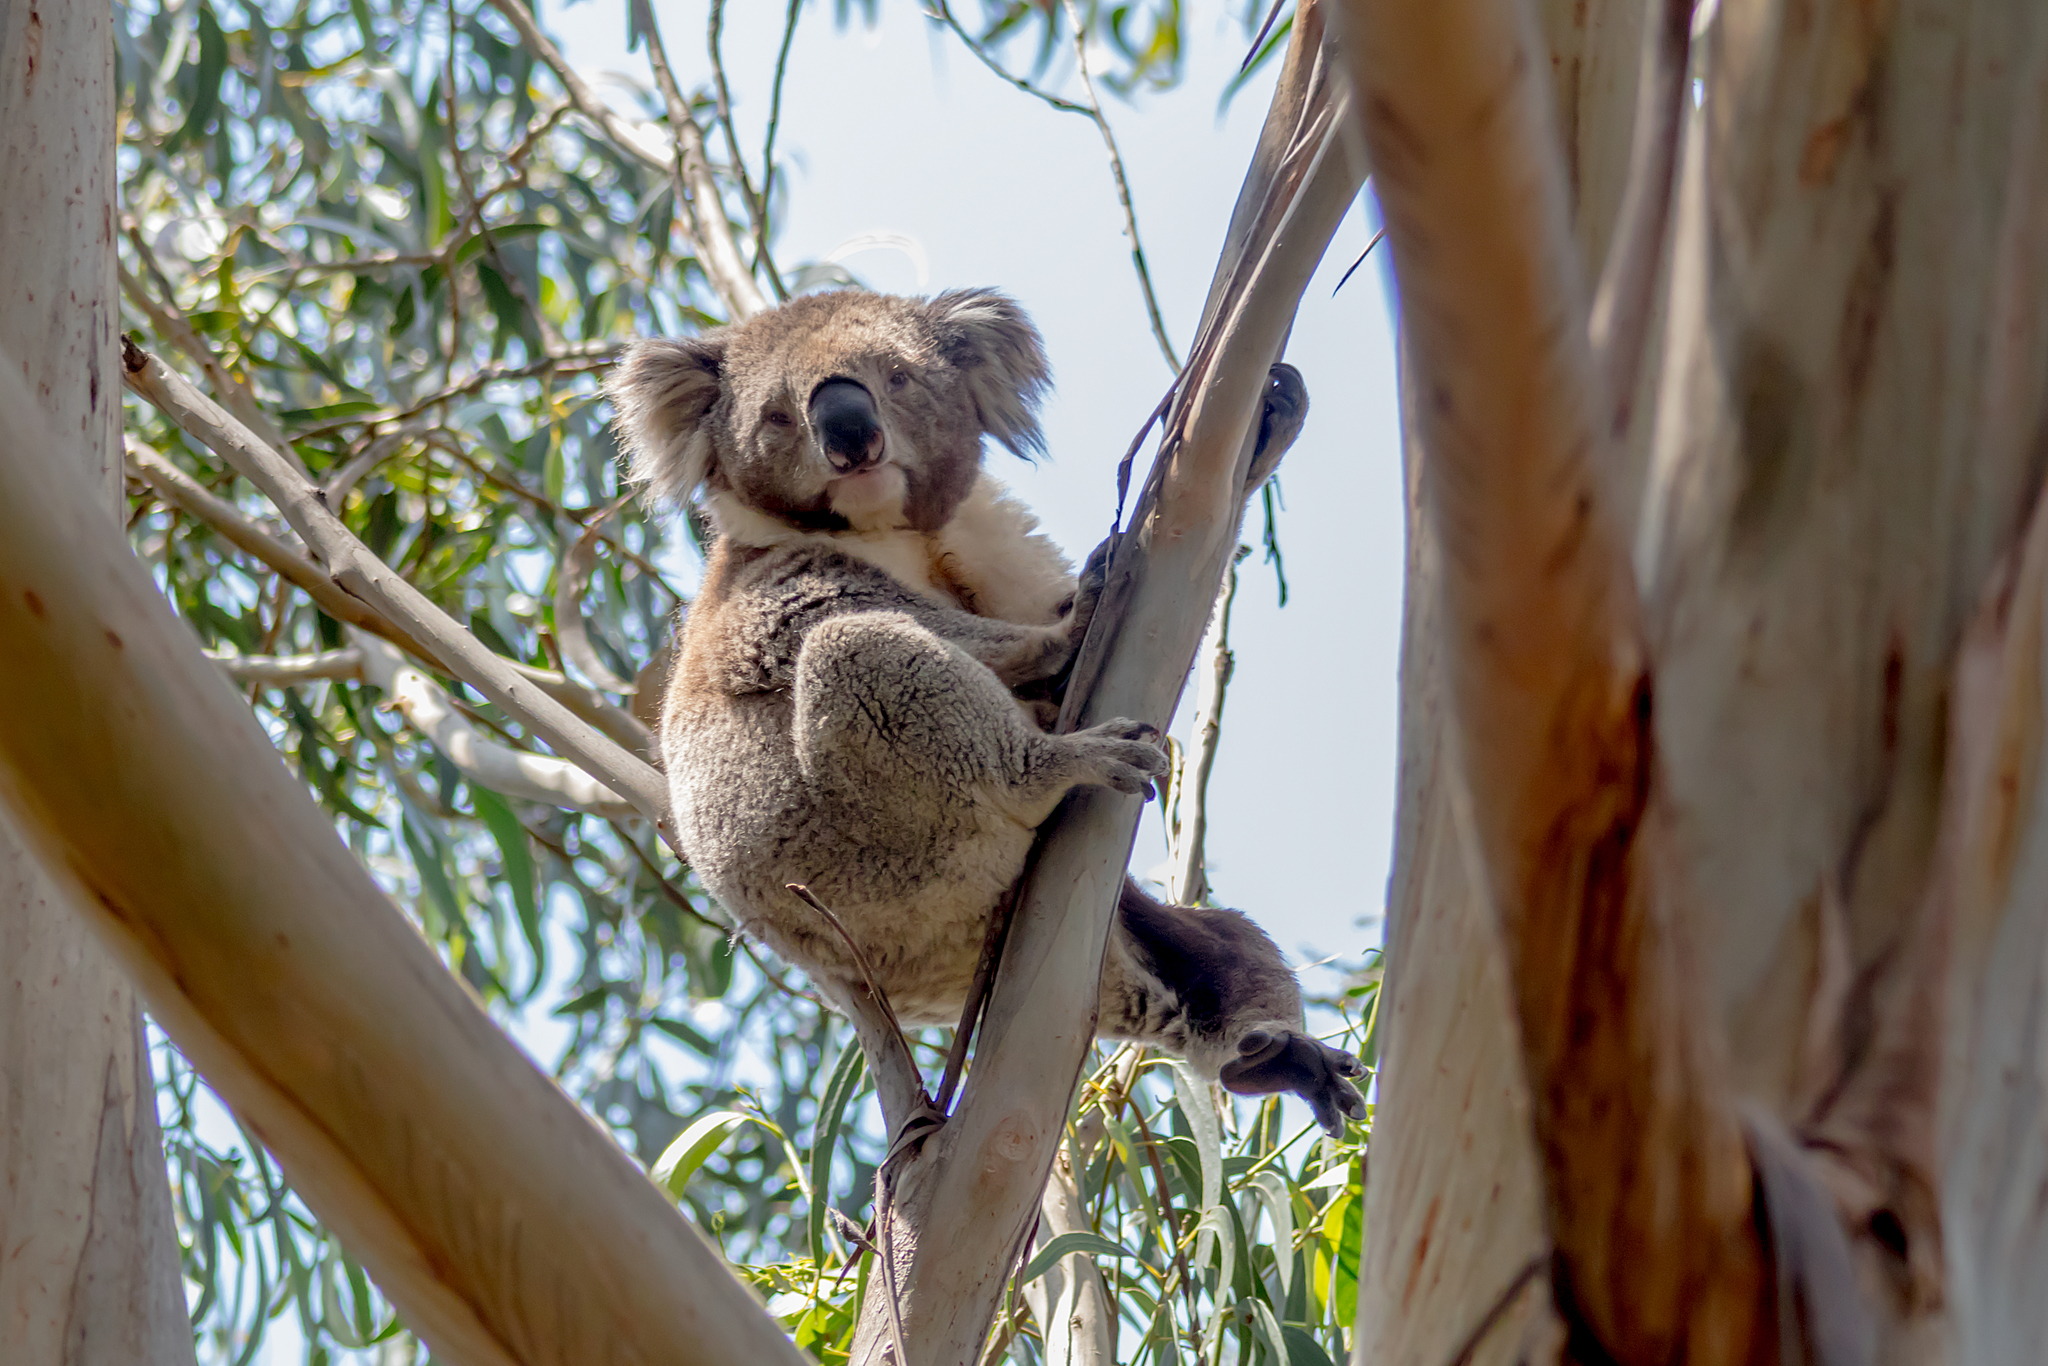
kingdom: Animalia
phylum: Chordata
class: Mammalia
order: Diprotodontia
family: Phascolarctidae
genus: Phascolarctos
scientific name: Phascolarctos cinereus
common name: Koala
